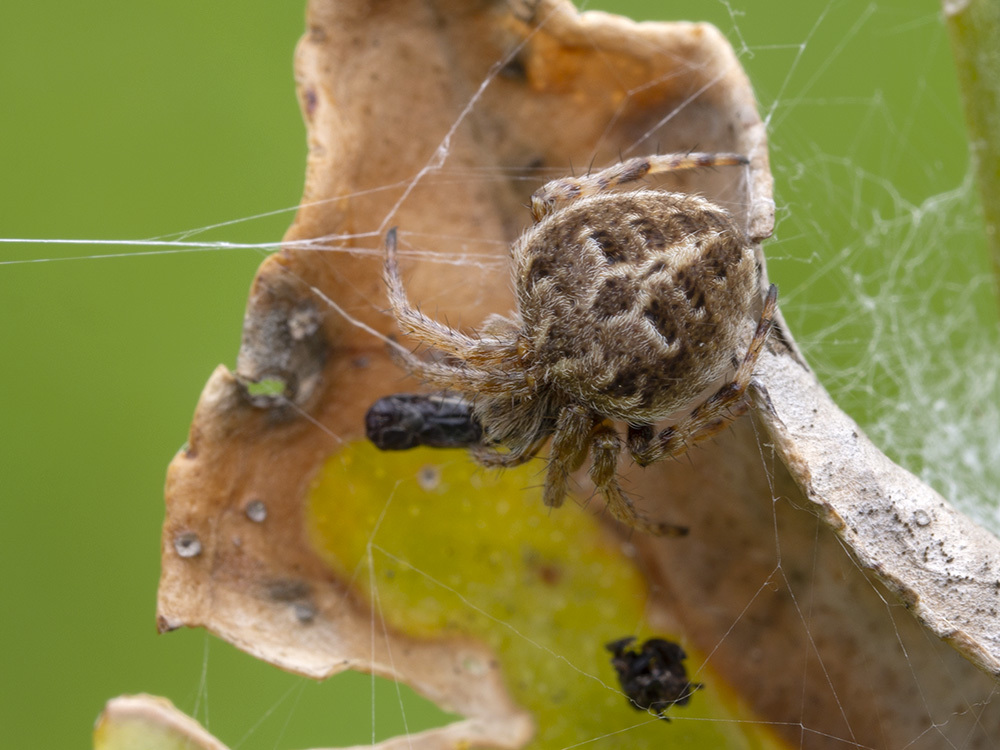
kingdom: Animalia
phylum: Arthropoda
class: Arachnida
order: Araneae
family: Araneidae
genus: Agalenatea
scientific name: Agalenatea redii
